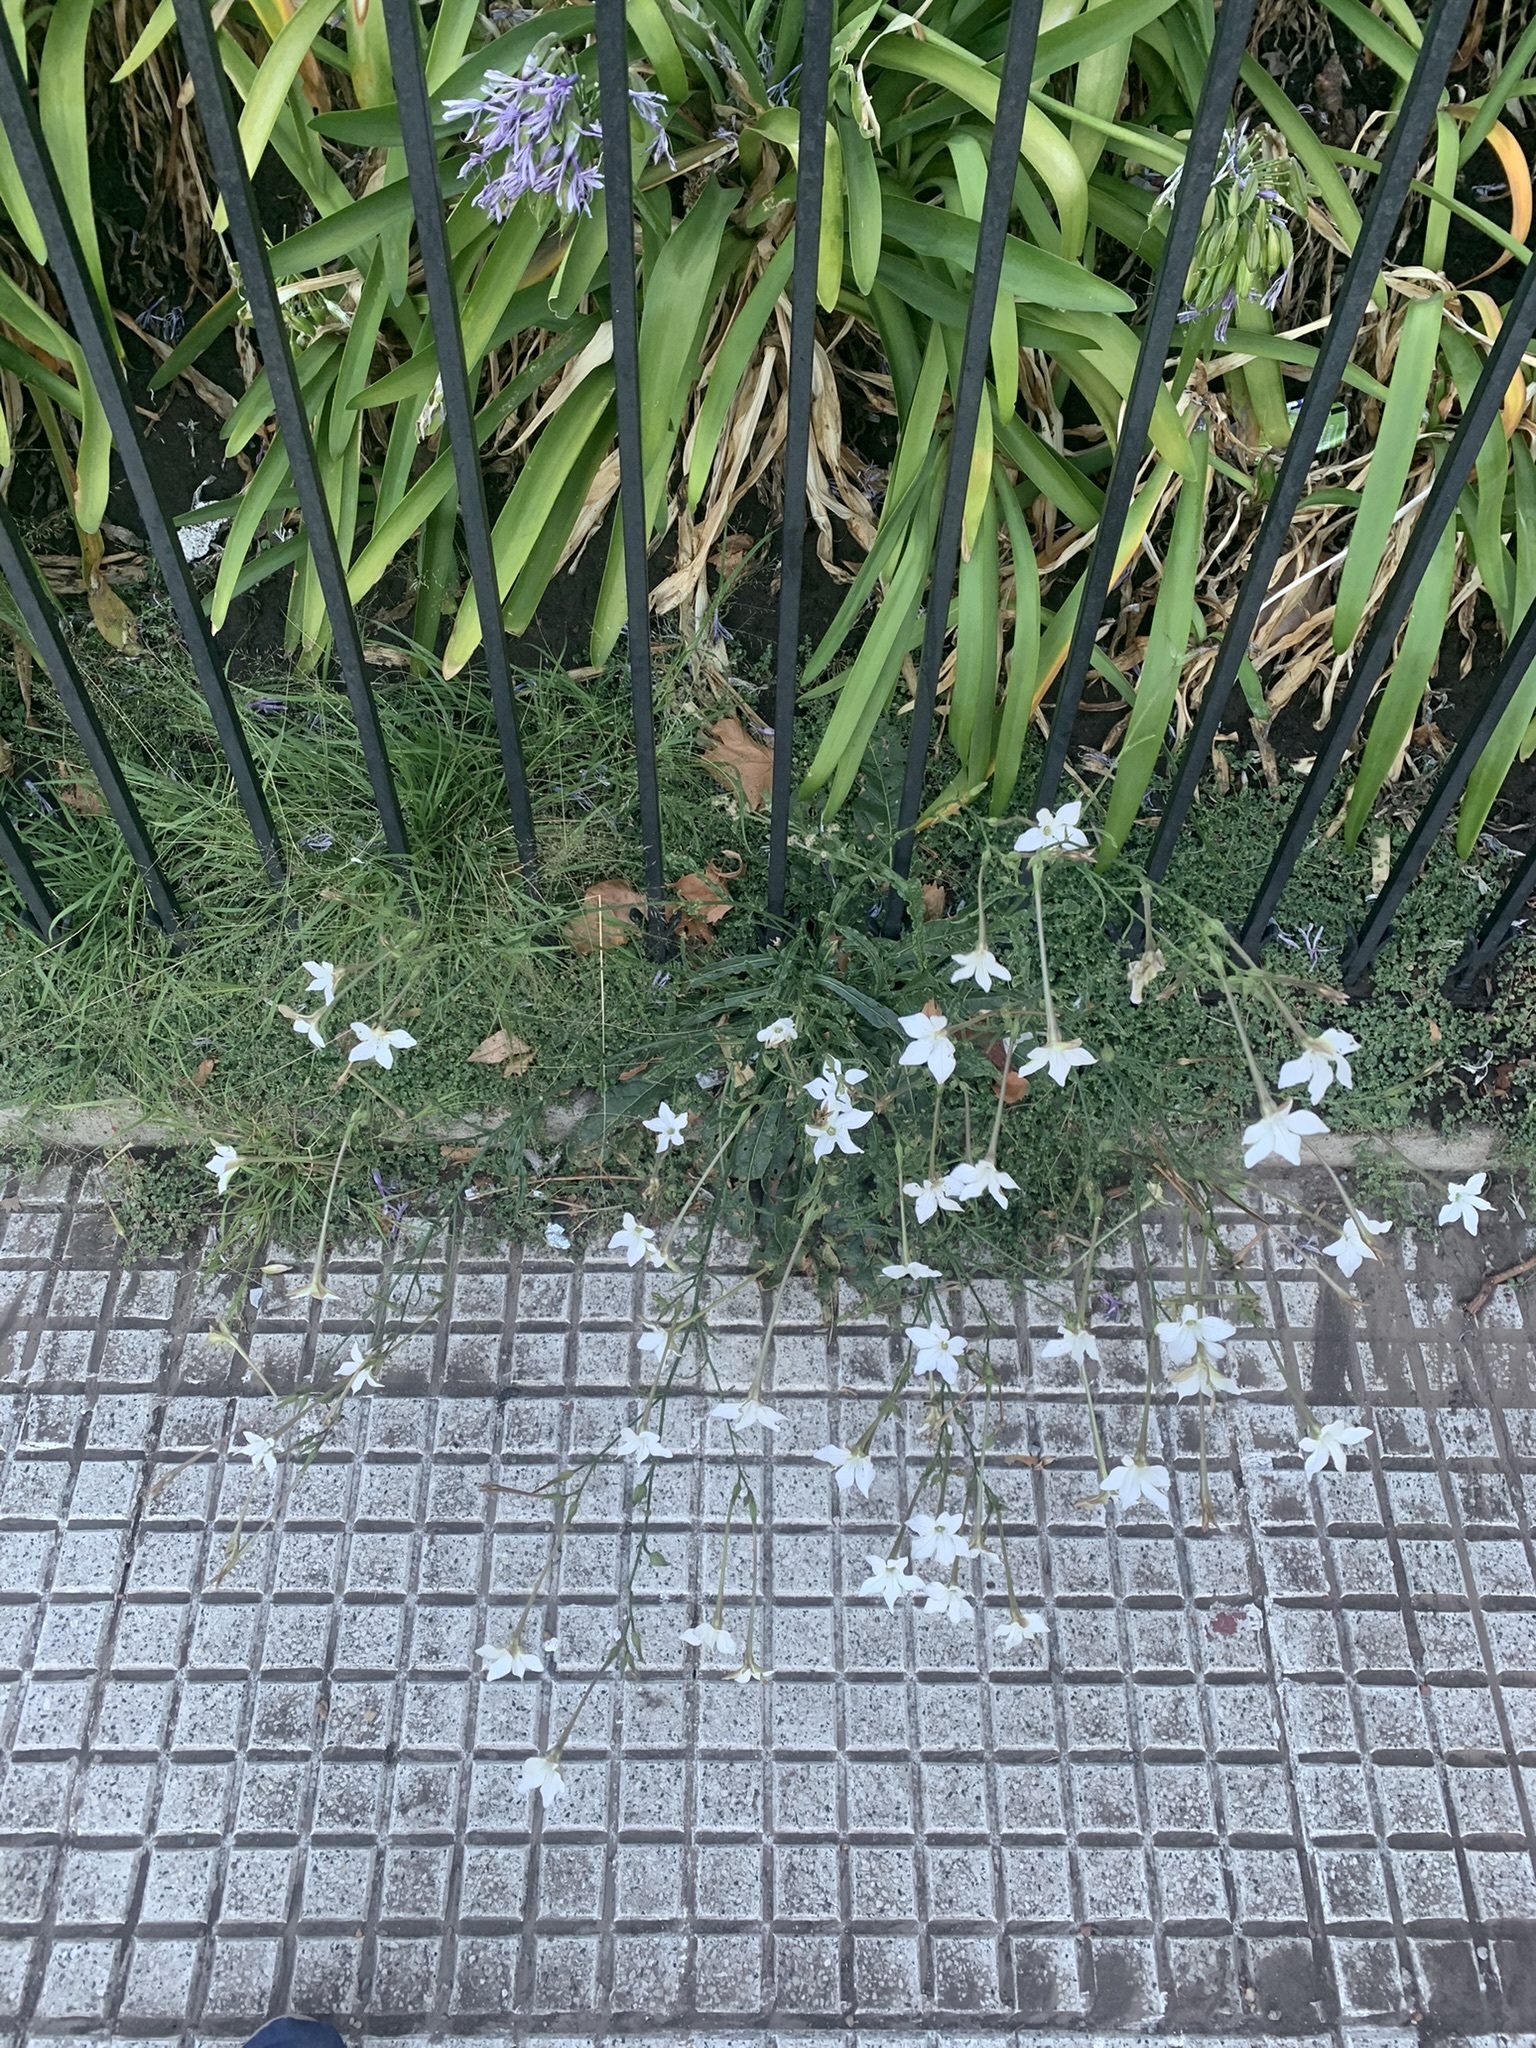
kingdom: Plantae
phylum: Tracheophyta
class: Magnoliopsida
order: Solanales
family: Solanaceae
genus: Nicotiana
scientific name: Nicotiana longiflora
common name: Long-flowered tobacco
